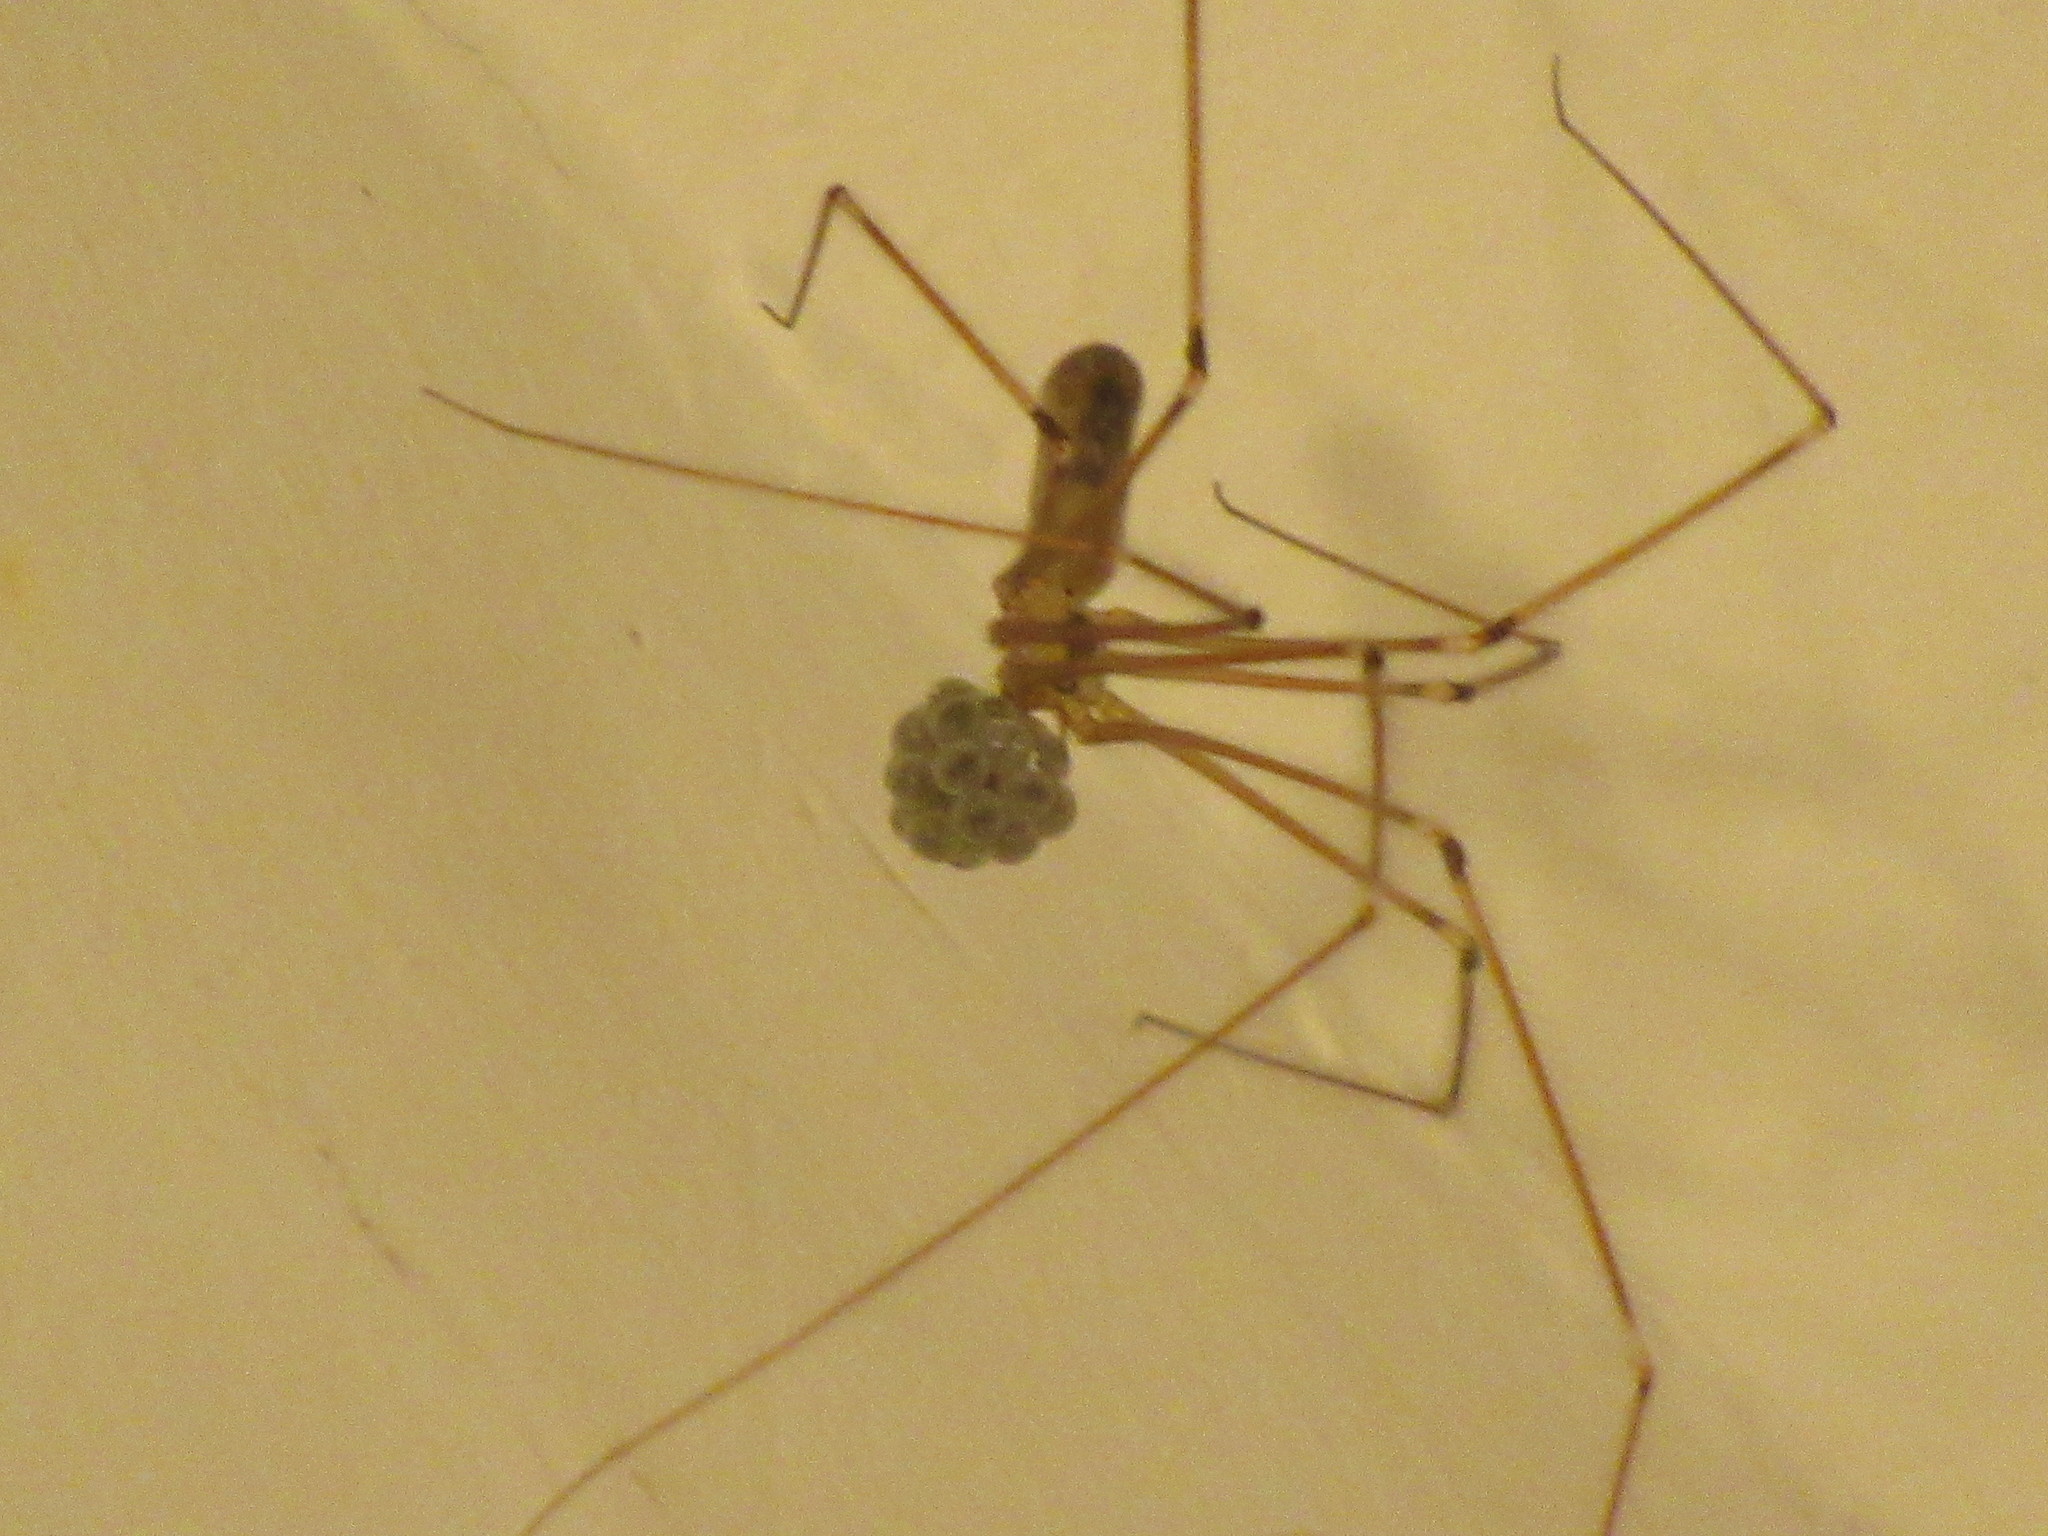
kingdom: Animalia
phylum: Arthropoda
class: Arachnida
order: Araneae
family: Pholcidae
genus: Pholcus
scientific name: Pholcus phalangioides
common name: Longbodied cellar spider
